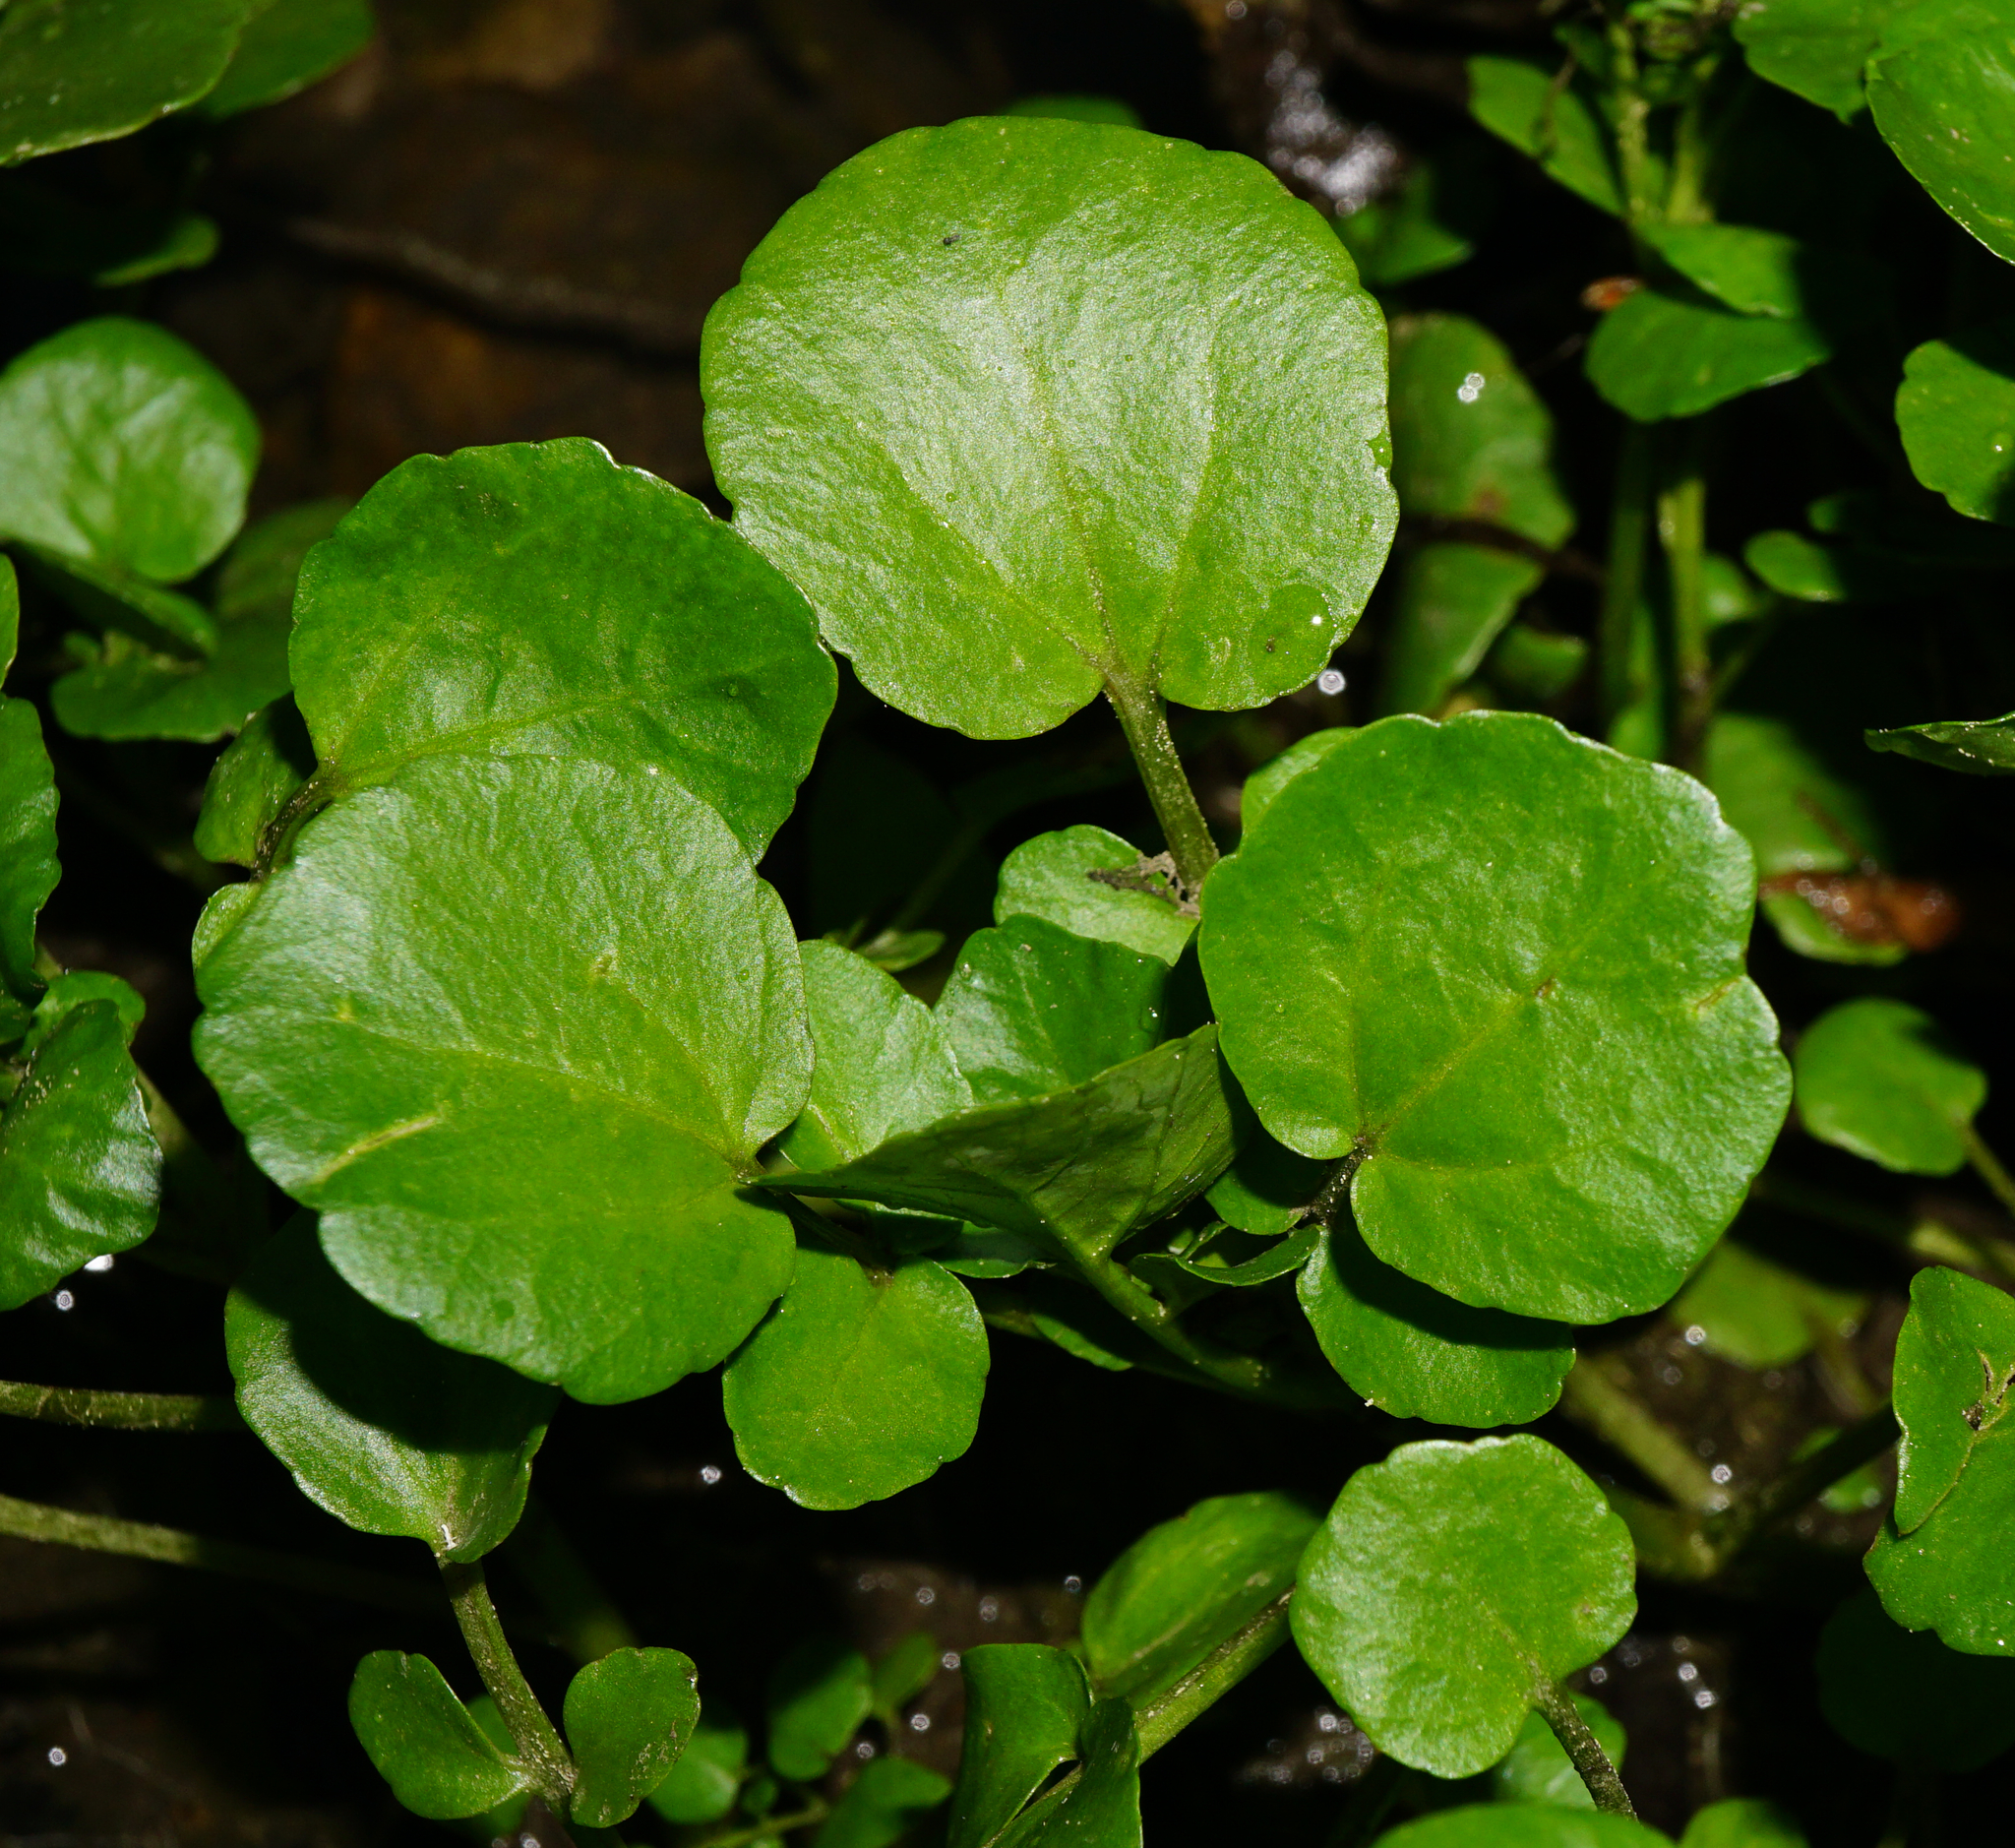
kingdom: Plantae
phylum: Tracheophyta
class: Magnoliopsida
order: Brassicales
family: Brassicaceae
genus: Nasturtium
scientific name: Nasturtium officinale
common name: Watercress
